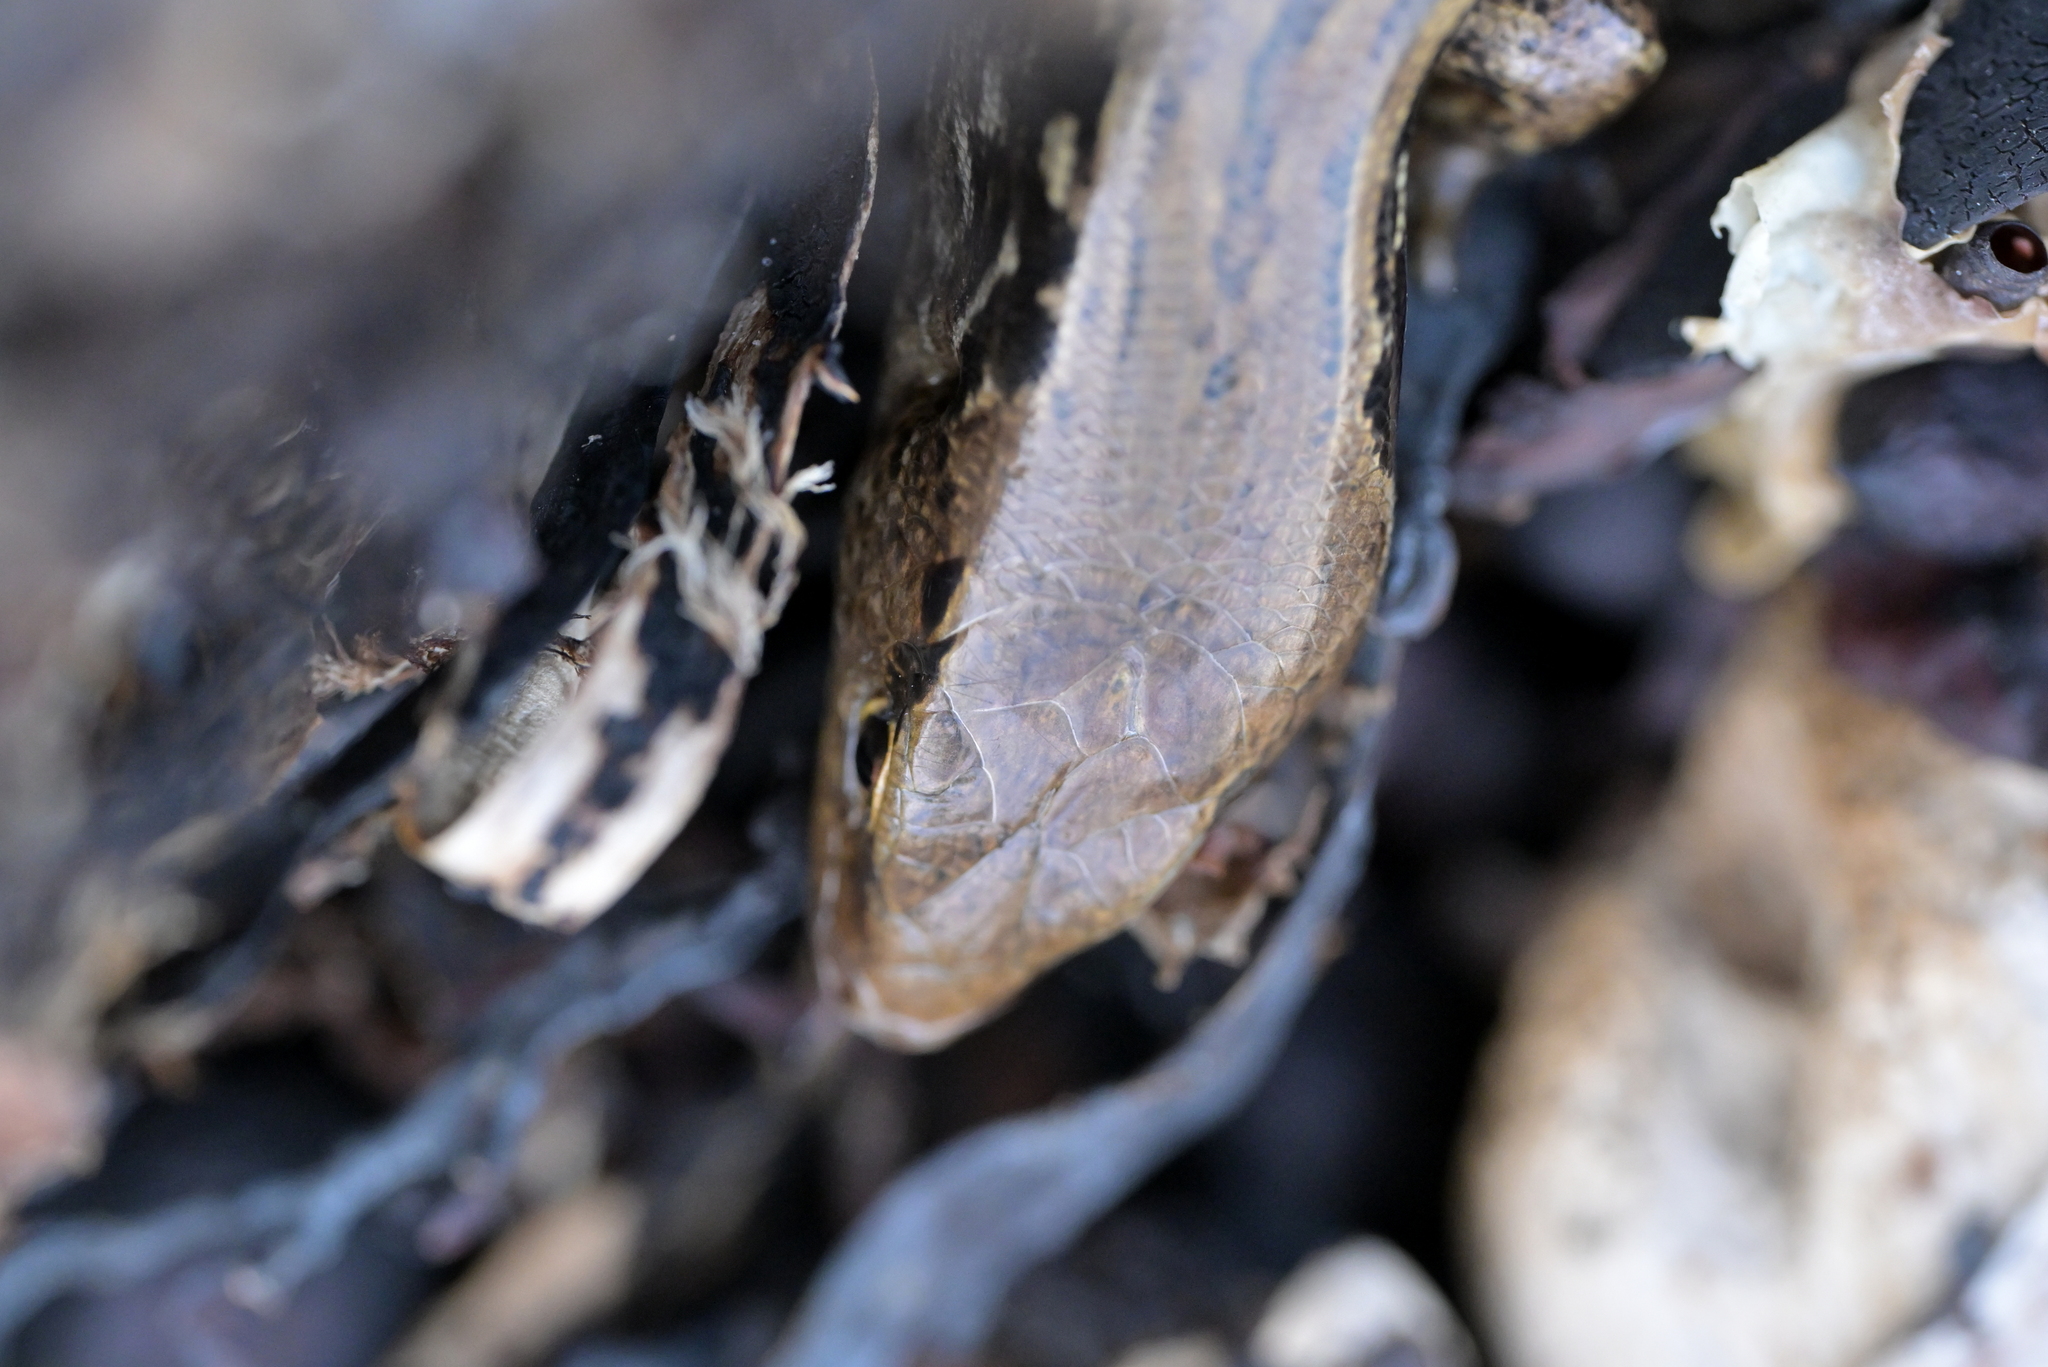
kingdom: Animalia
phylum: Chordata
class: Squamata
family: Scincidae
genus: Oligosoma
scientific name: Oligosoma macgregori
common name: Macgregor's skink
